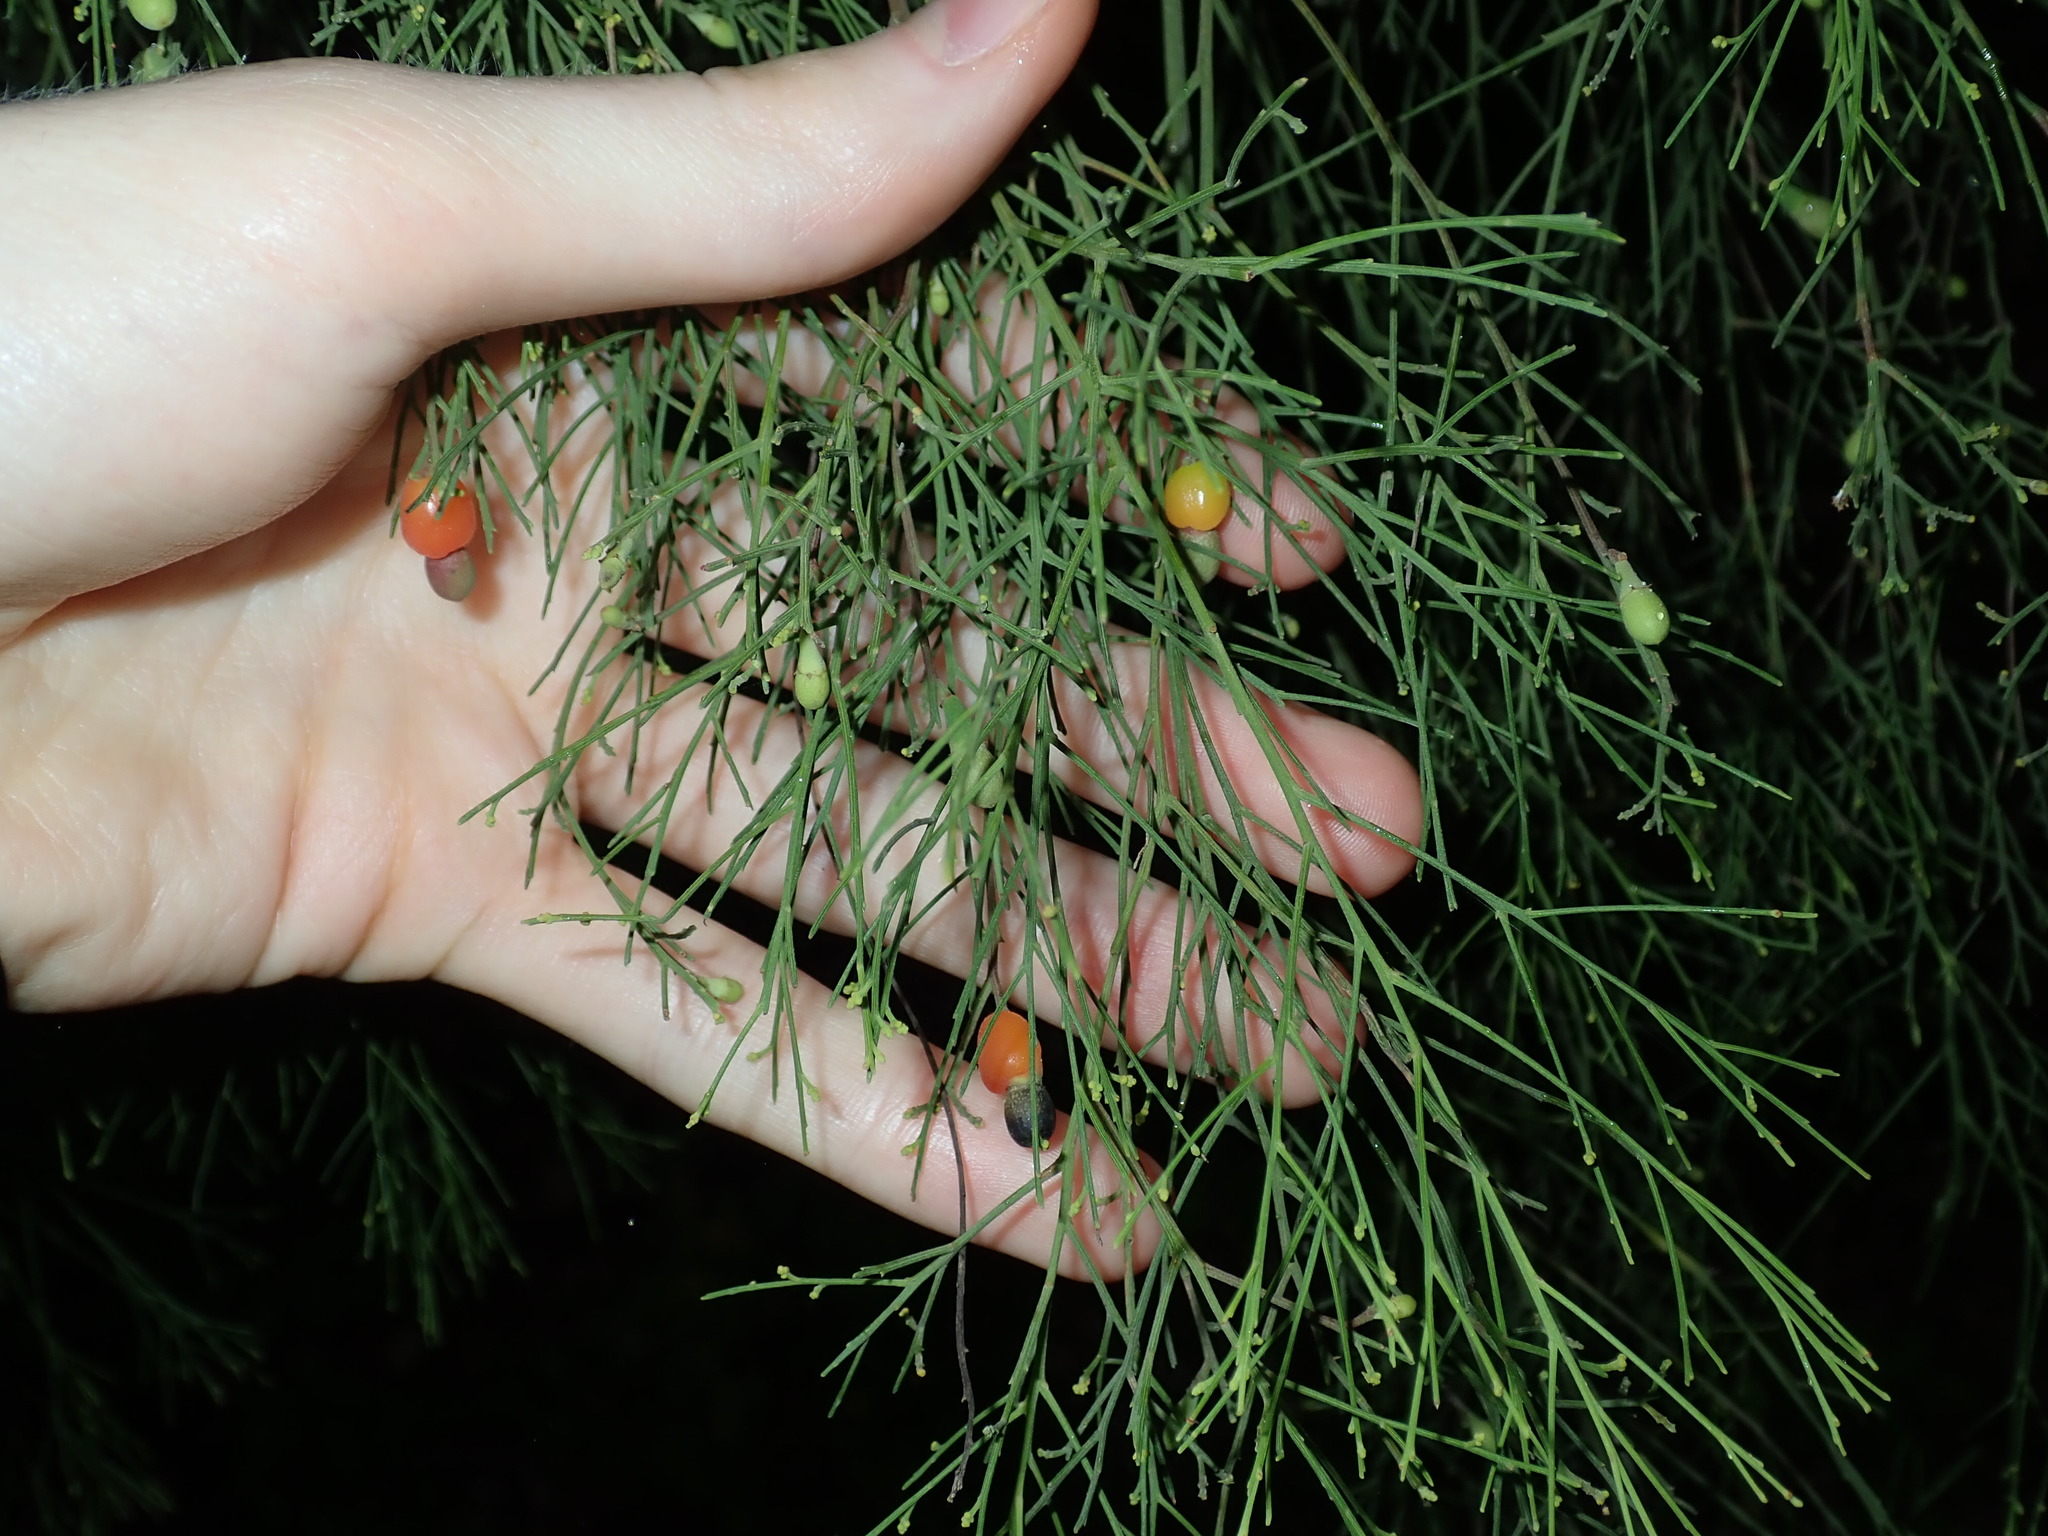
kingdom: Plantae
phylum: Tracheophyta
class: Magnoliopsida
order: Santalales
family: Santalaceae
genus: Exocarpos
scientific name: Exocarpos cupressiformis
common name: Cherry ballart
